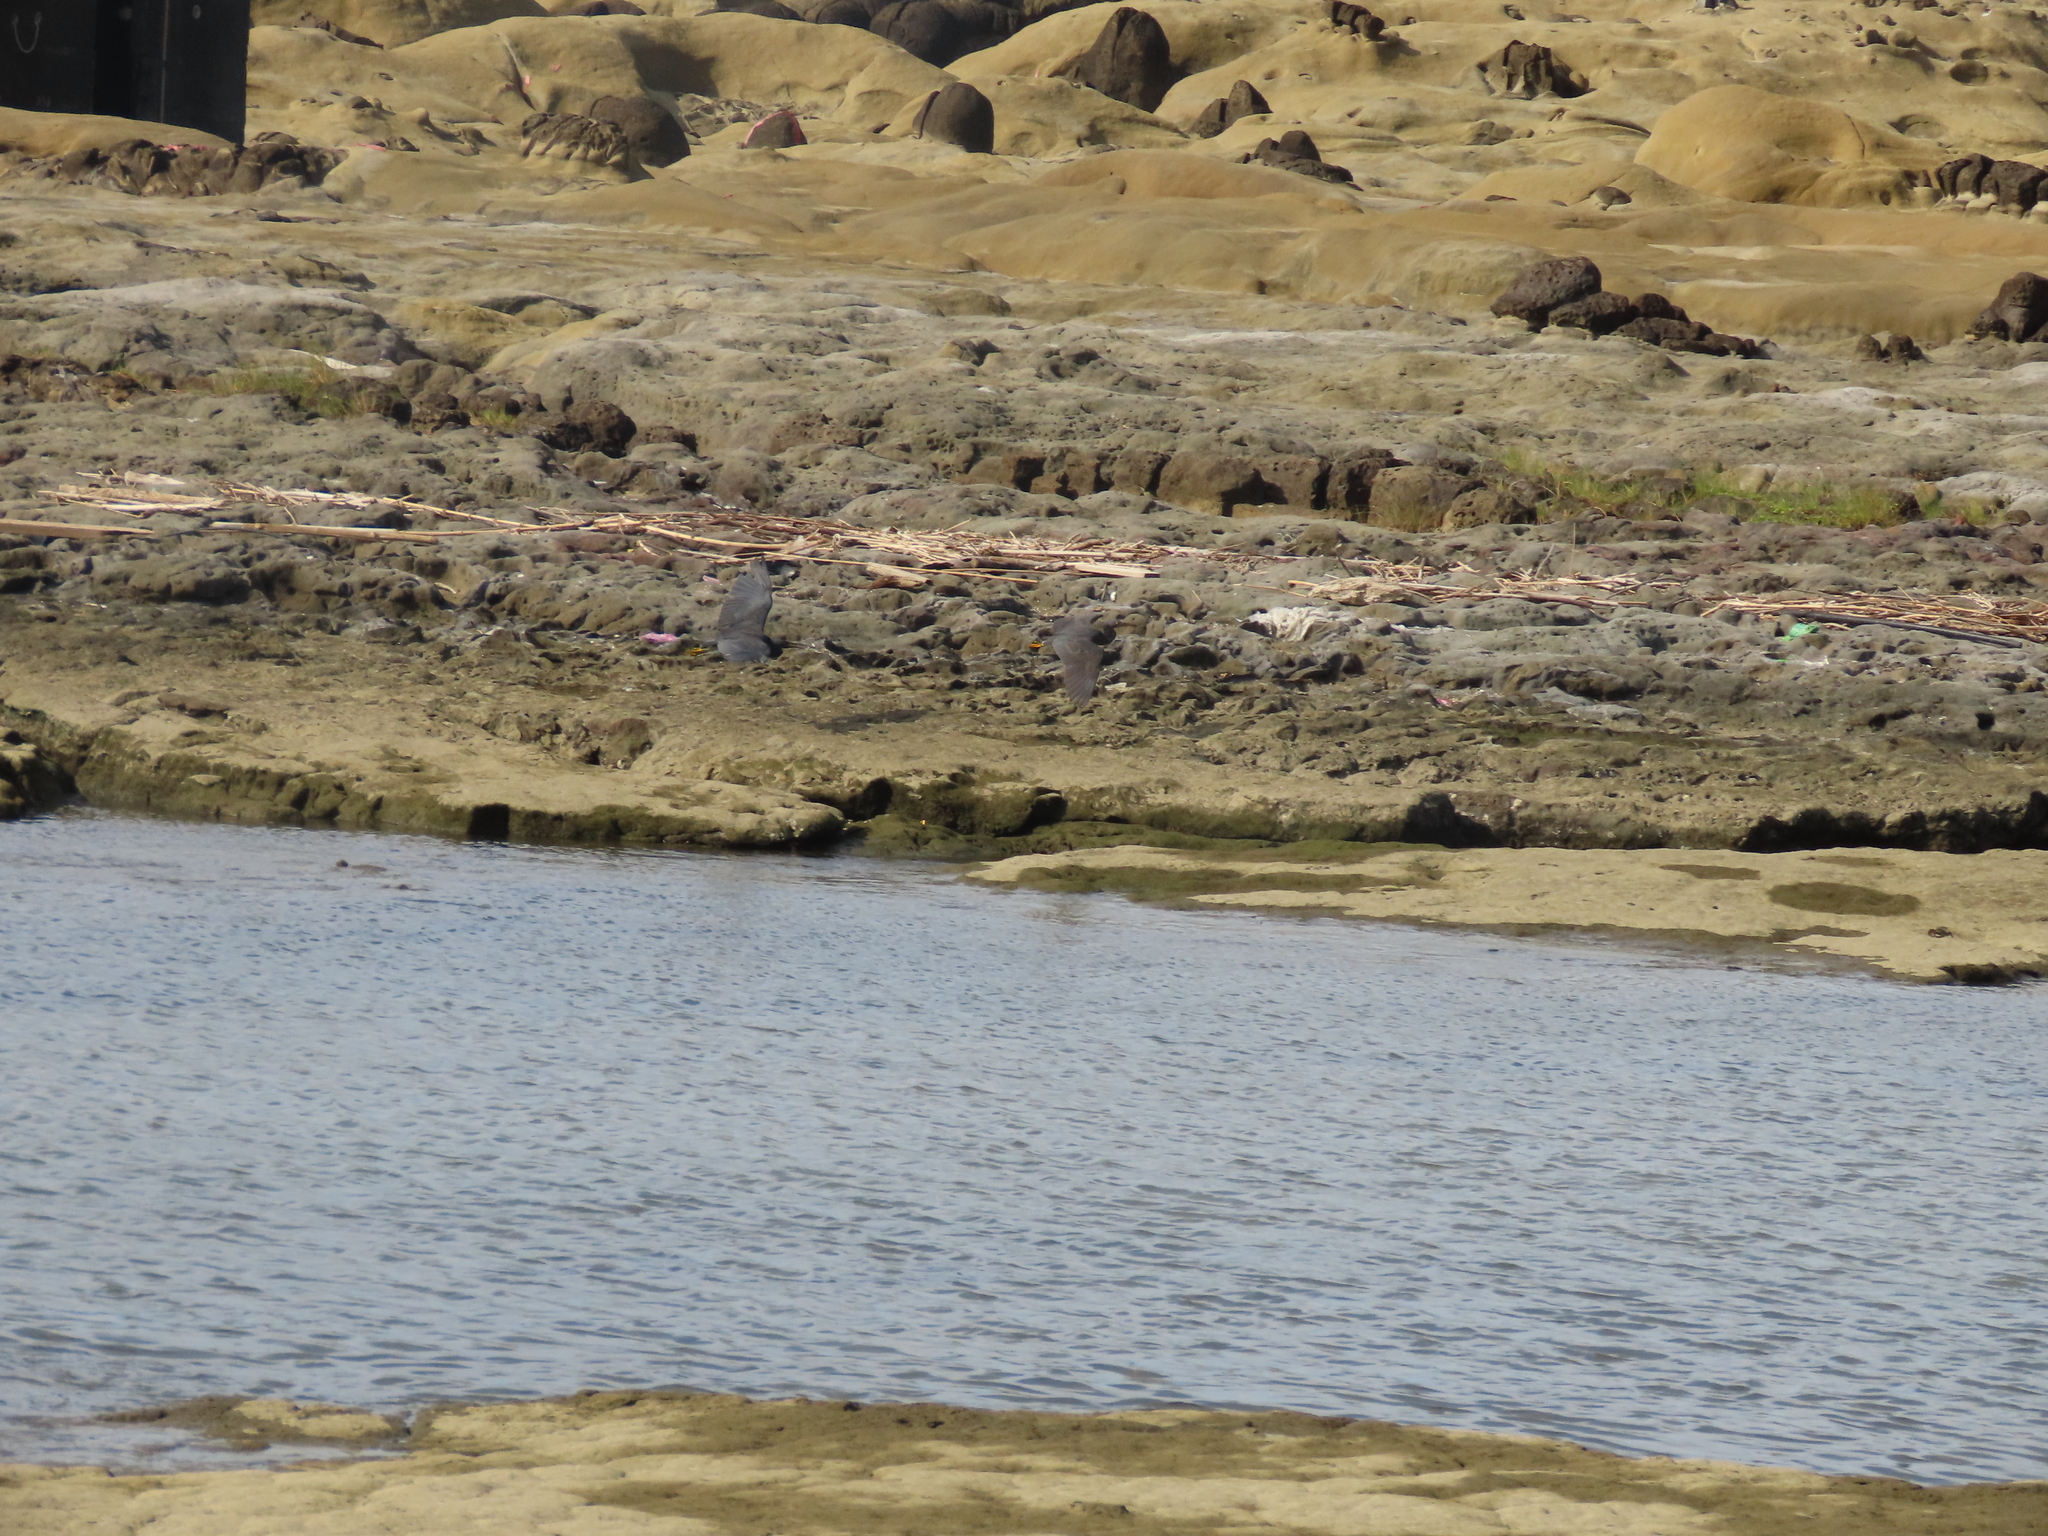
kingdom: Animalia
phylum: Chordata
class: Aves
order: Pelecaniformes
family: Ardeidae
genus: Egretta
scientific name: Egretta sacra
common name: Pacific reef heron
